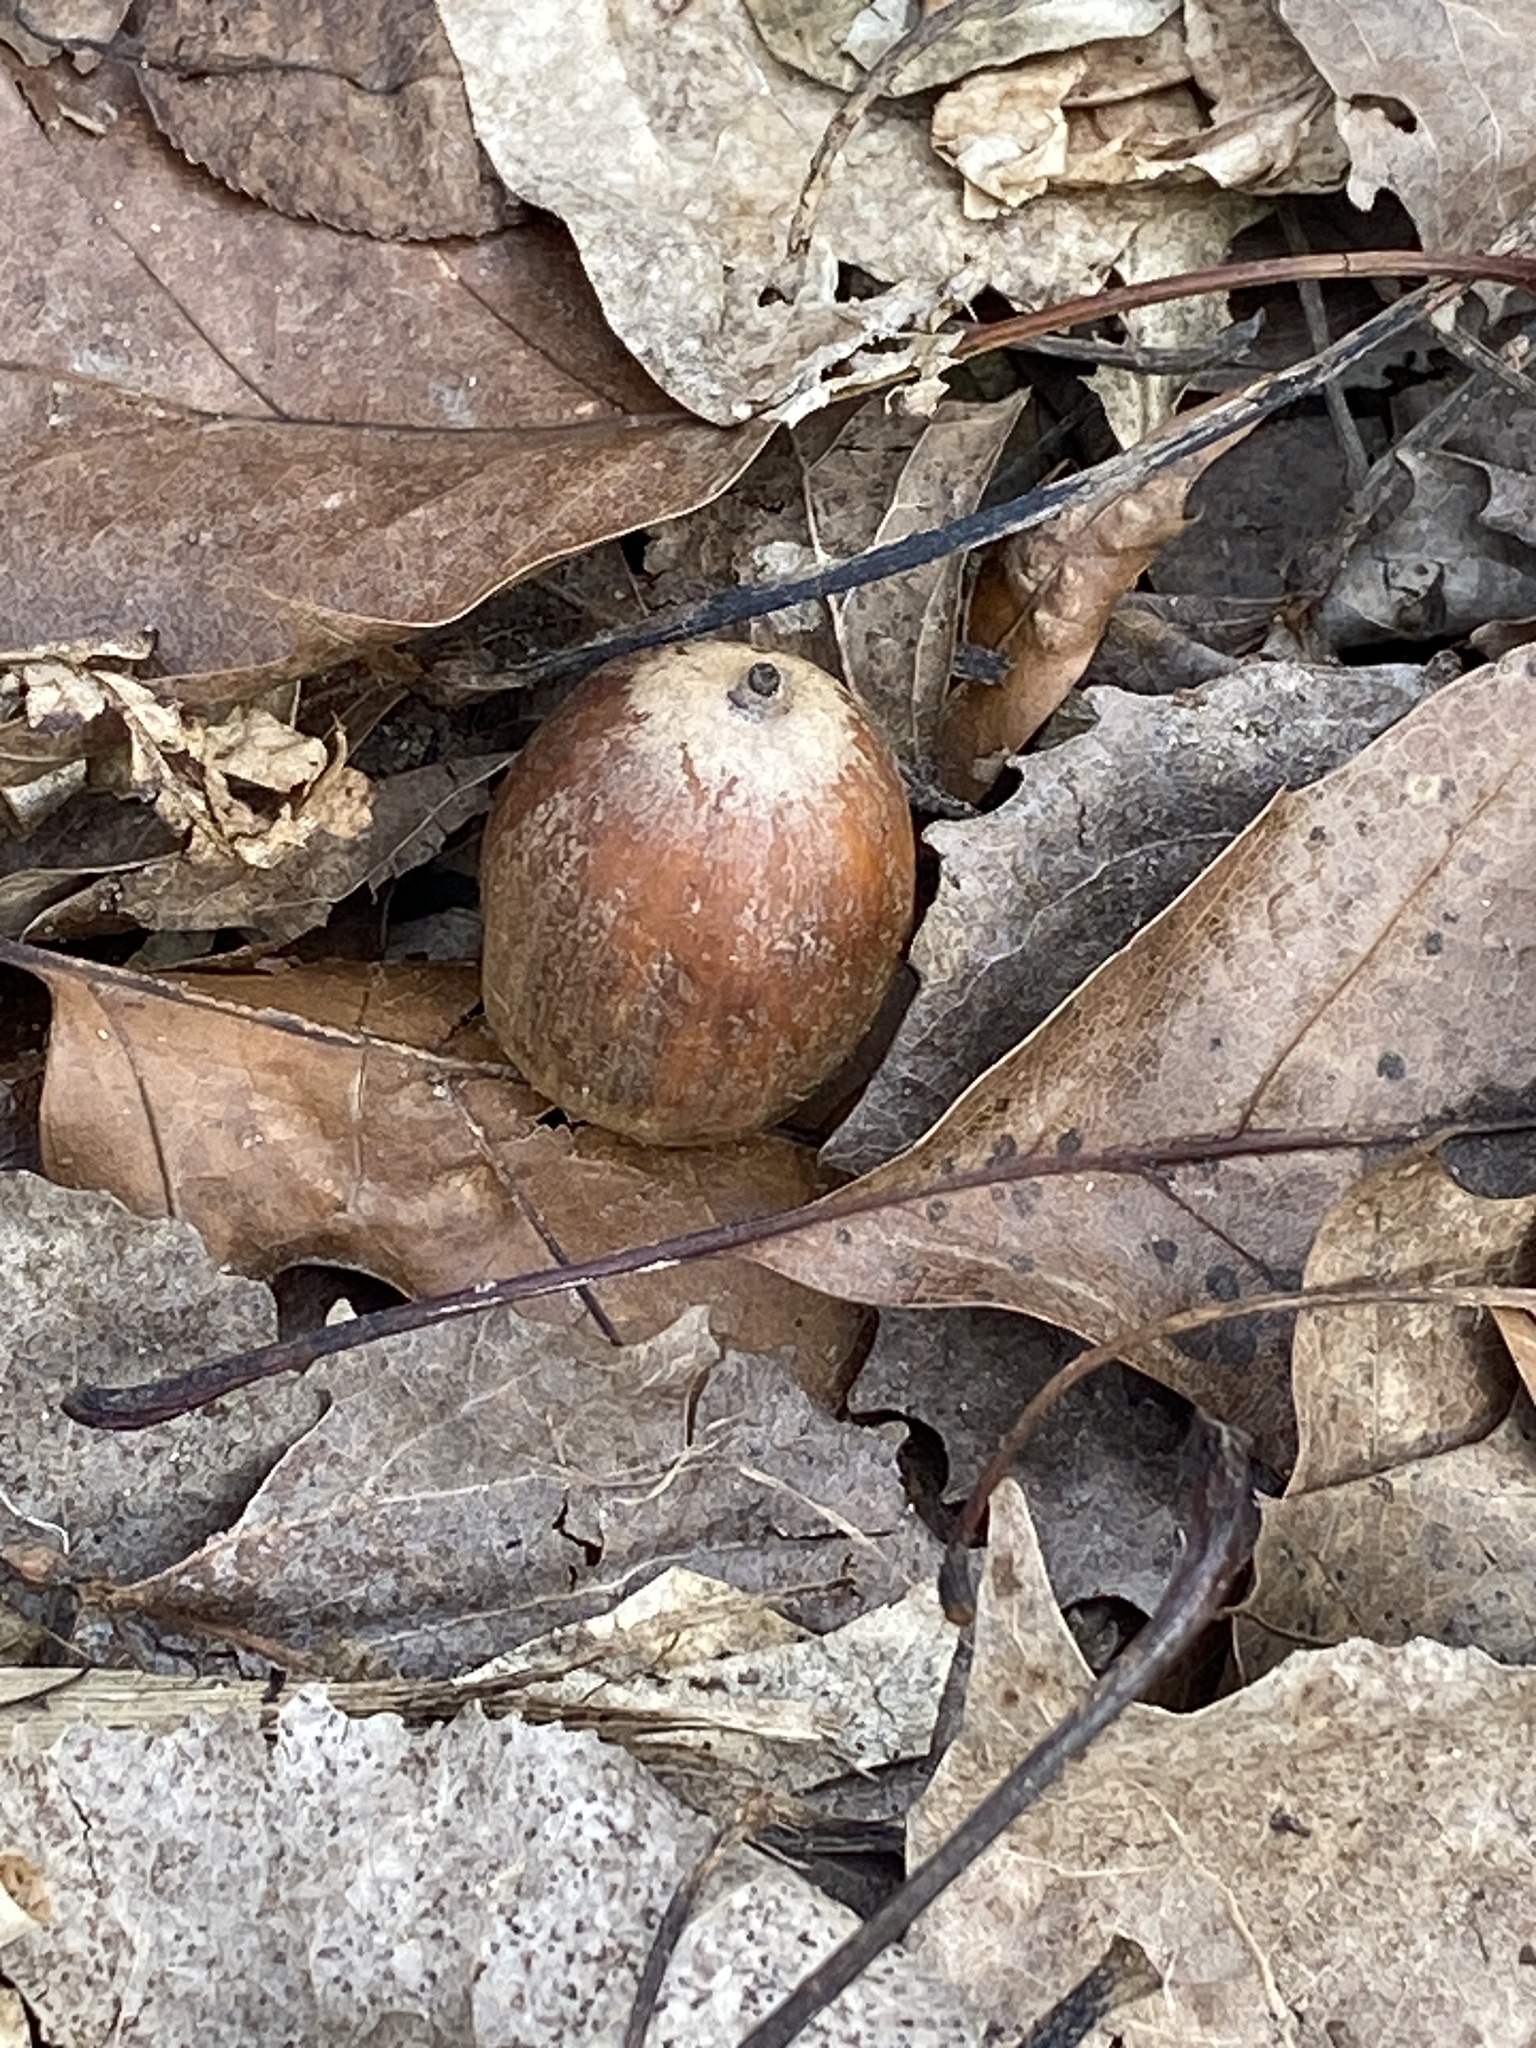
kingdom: Plantae
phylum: Tracheophyta
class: Magnoliopsida
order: Fagales
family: Fagaceae
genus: Quercus
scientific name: Quercus rubra
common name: Red oak
